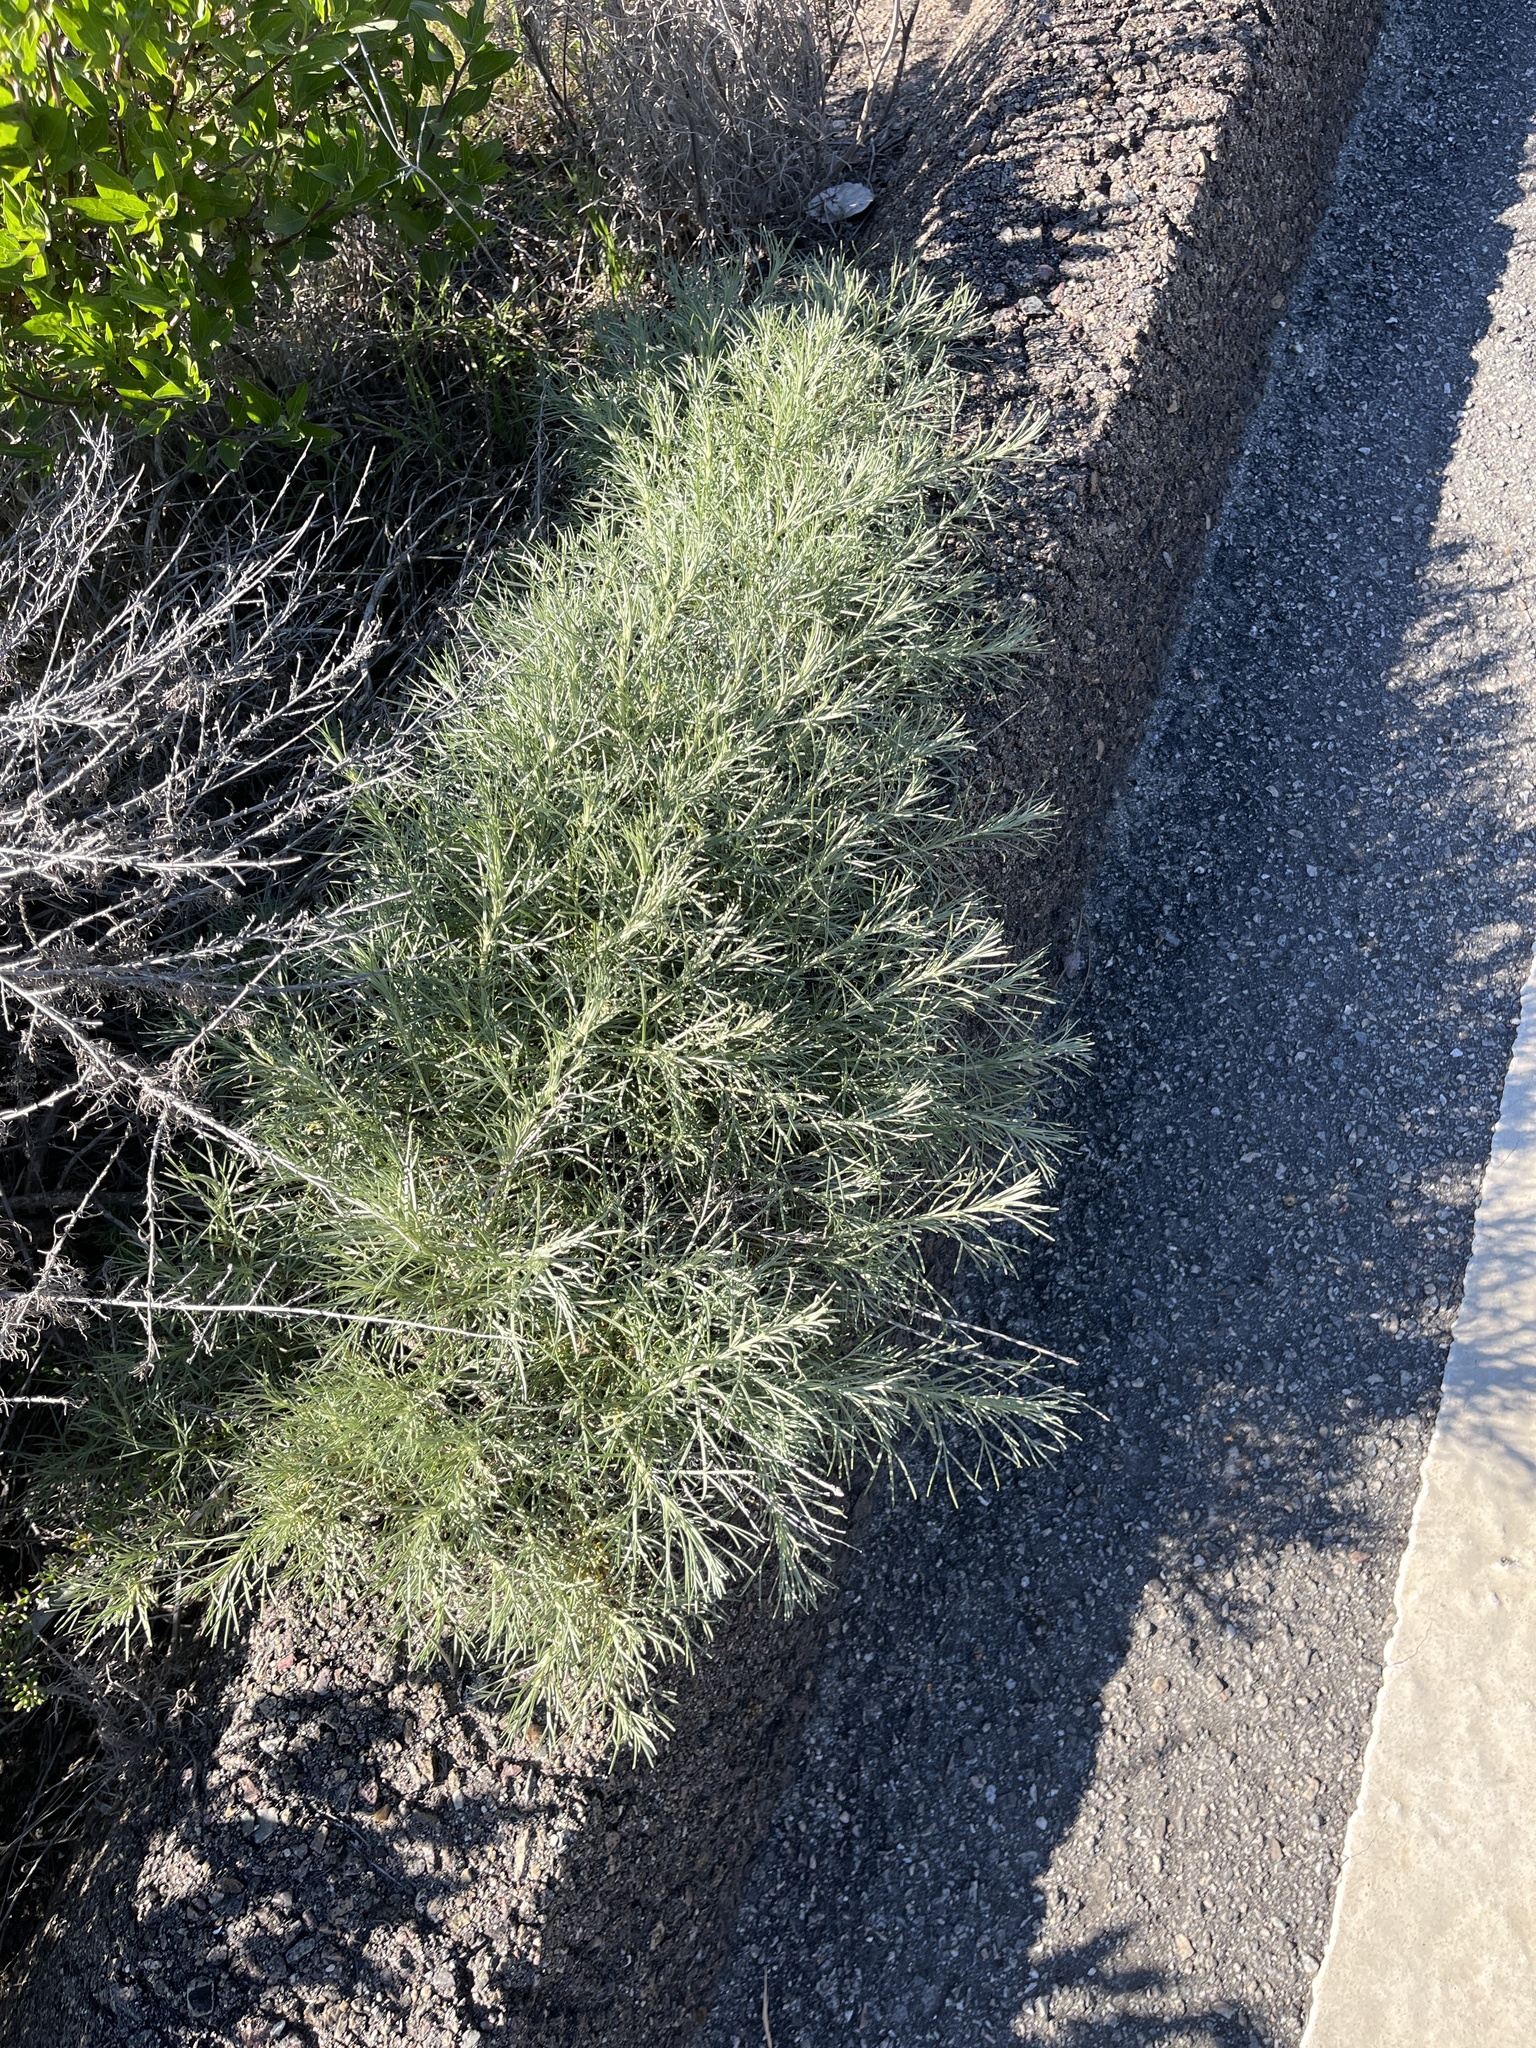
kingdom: Plantae
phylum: Tracheophyta
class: Magnoliopsida
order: Asterales
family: Asteraceae
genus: Artemisia
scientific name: Artemisia californica
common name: California sagebrush
